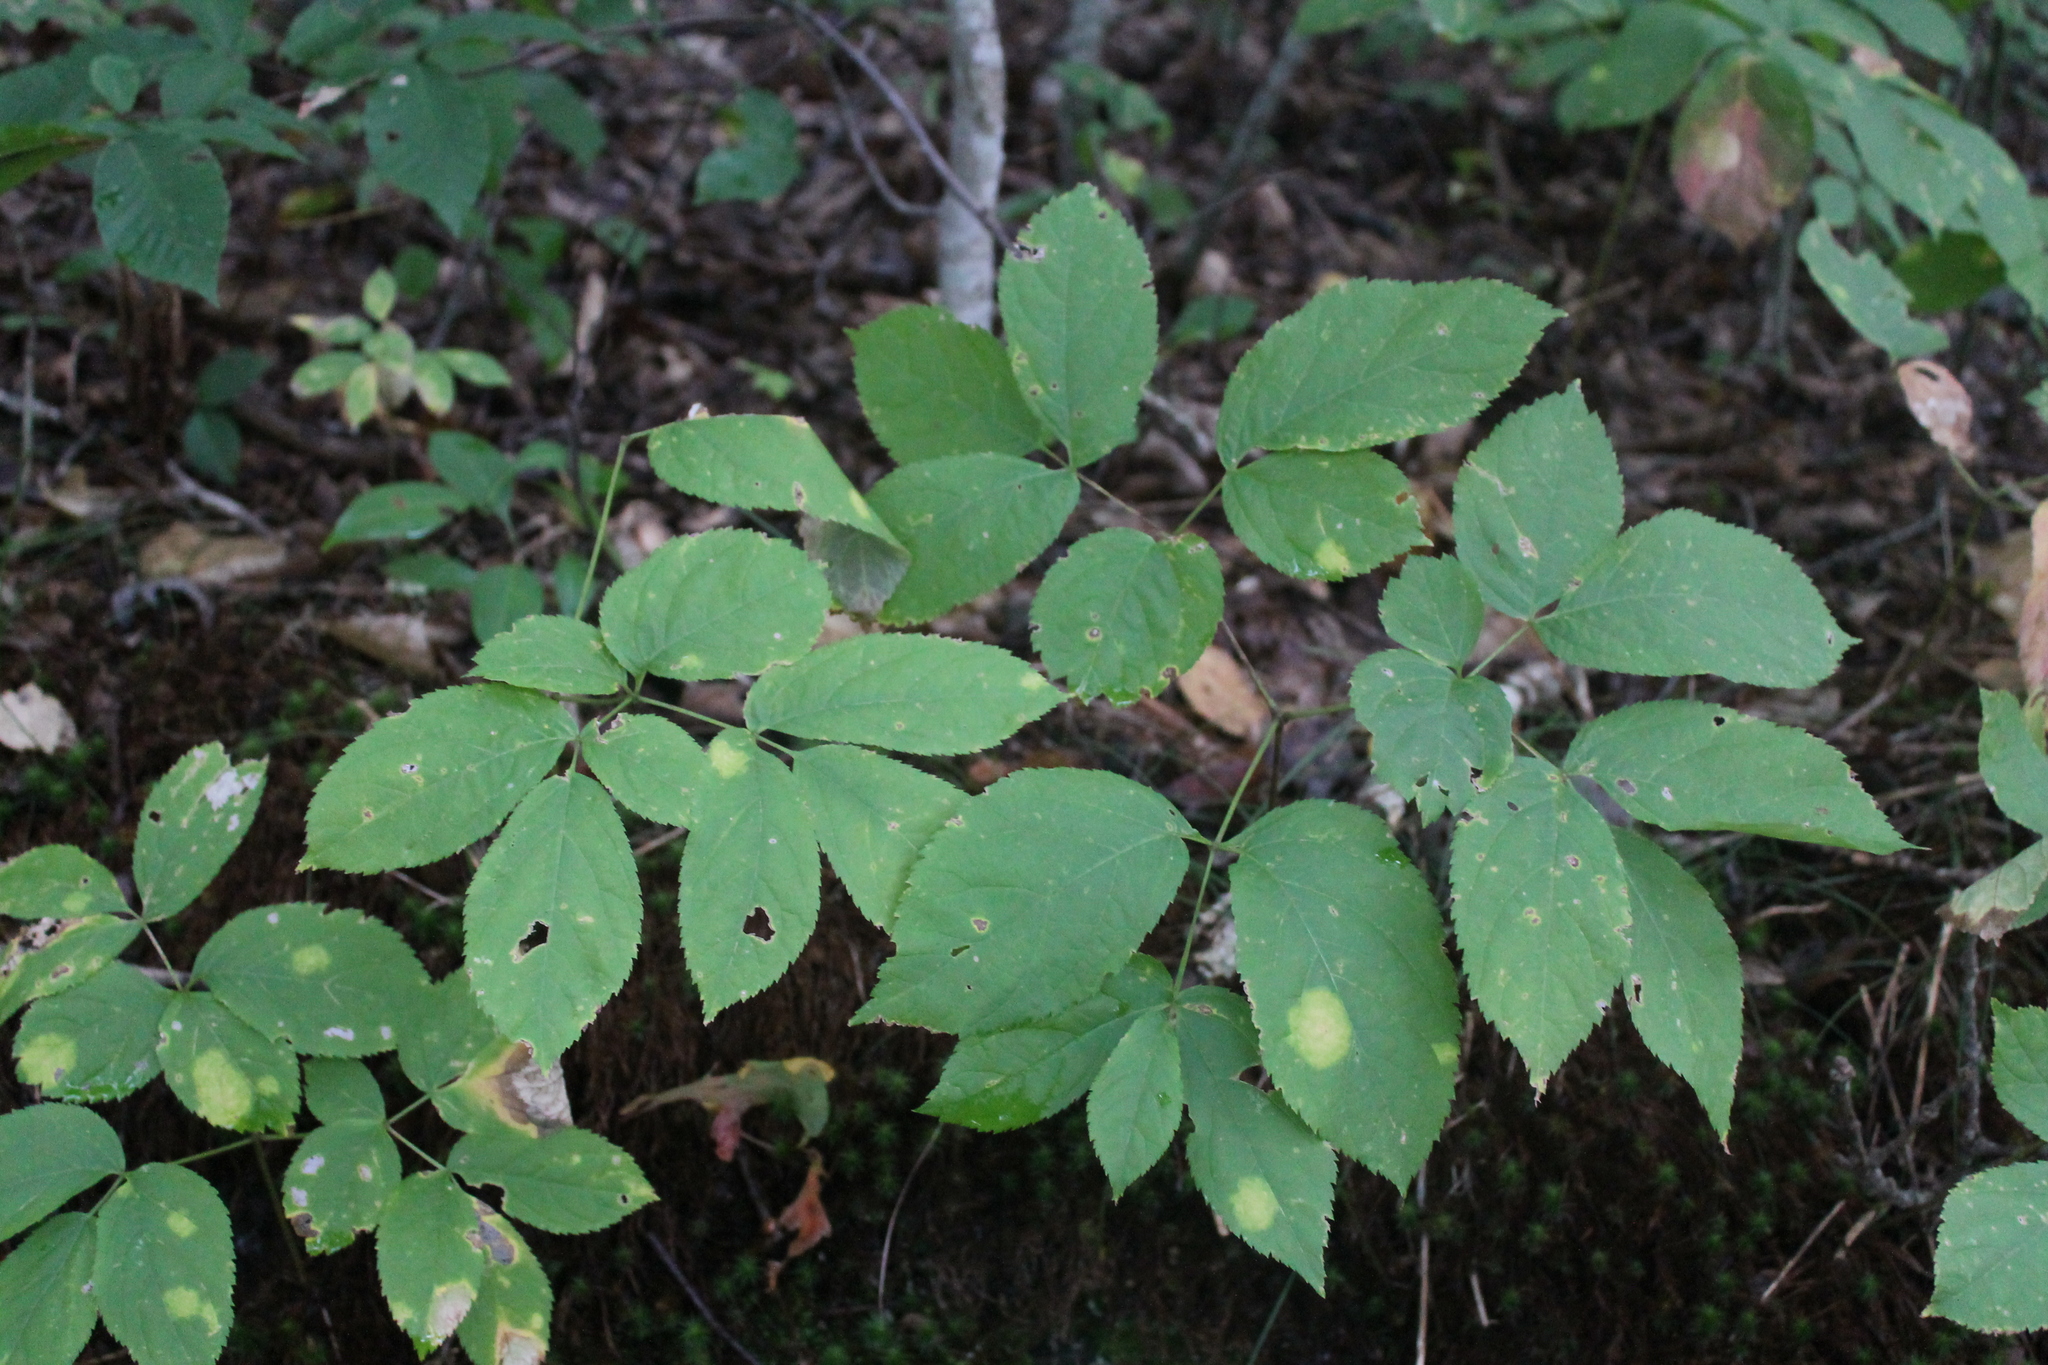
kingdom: Plantae
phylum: Tracheophyta
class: Magnoliopsida
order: Apiales
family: Araliaceae
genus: Aralia
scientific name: Aralia nudicaulis
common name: Wild sarsaparilla
